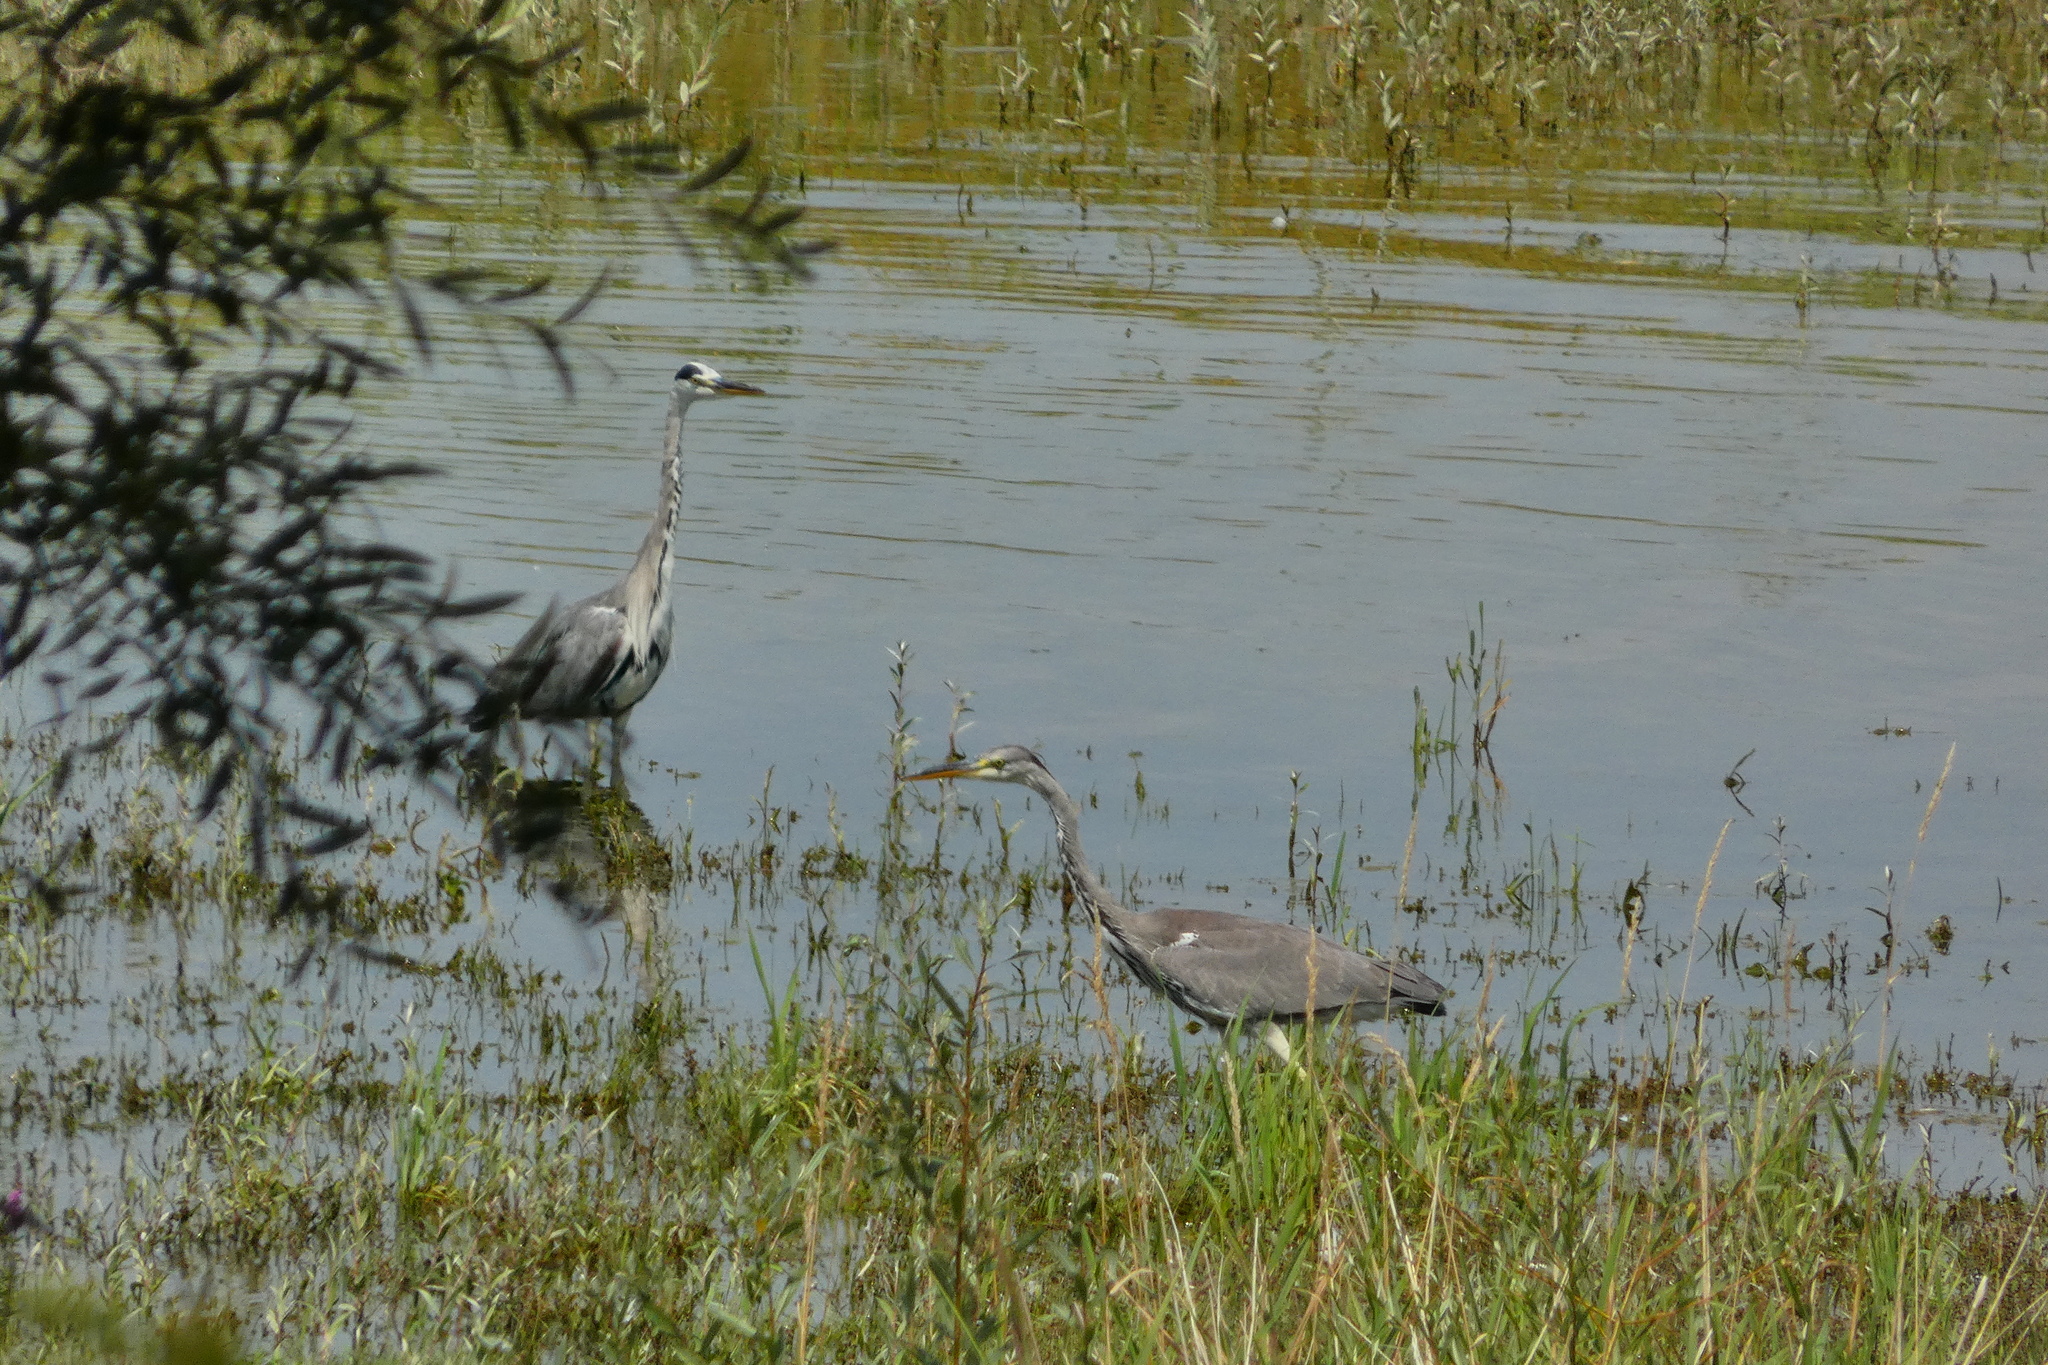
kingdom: Animalia
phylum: Chordata
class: Aves
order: Pelecaniformes
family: Ardeidae
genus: Ardea
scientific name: Ardea cinerea
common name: Grey heron
